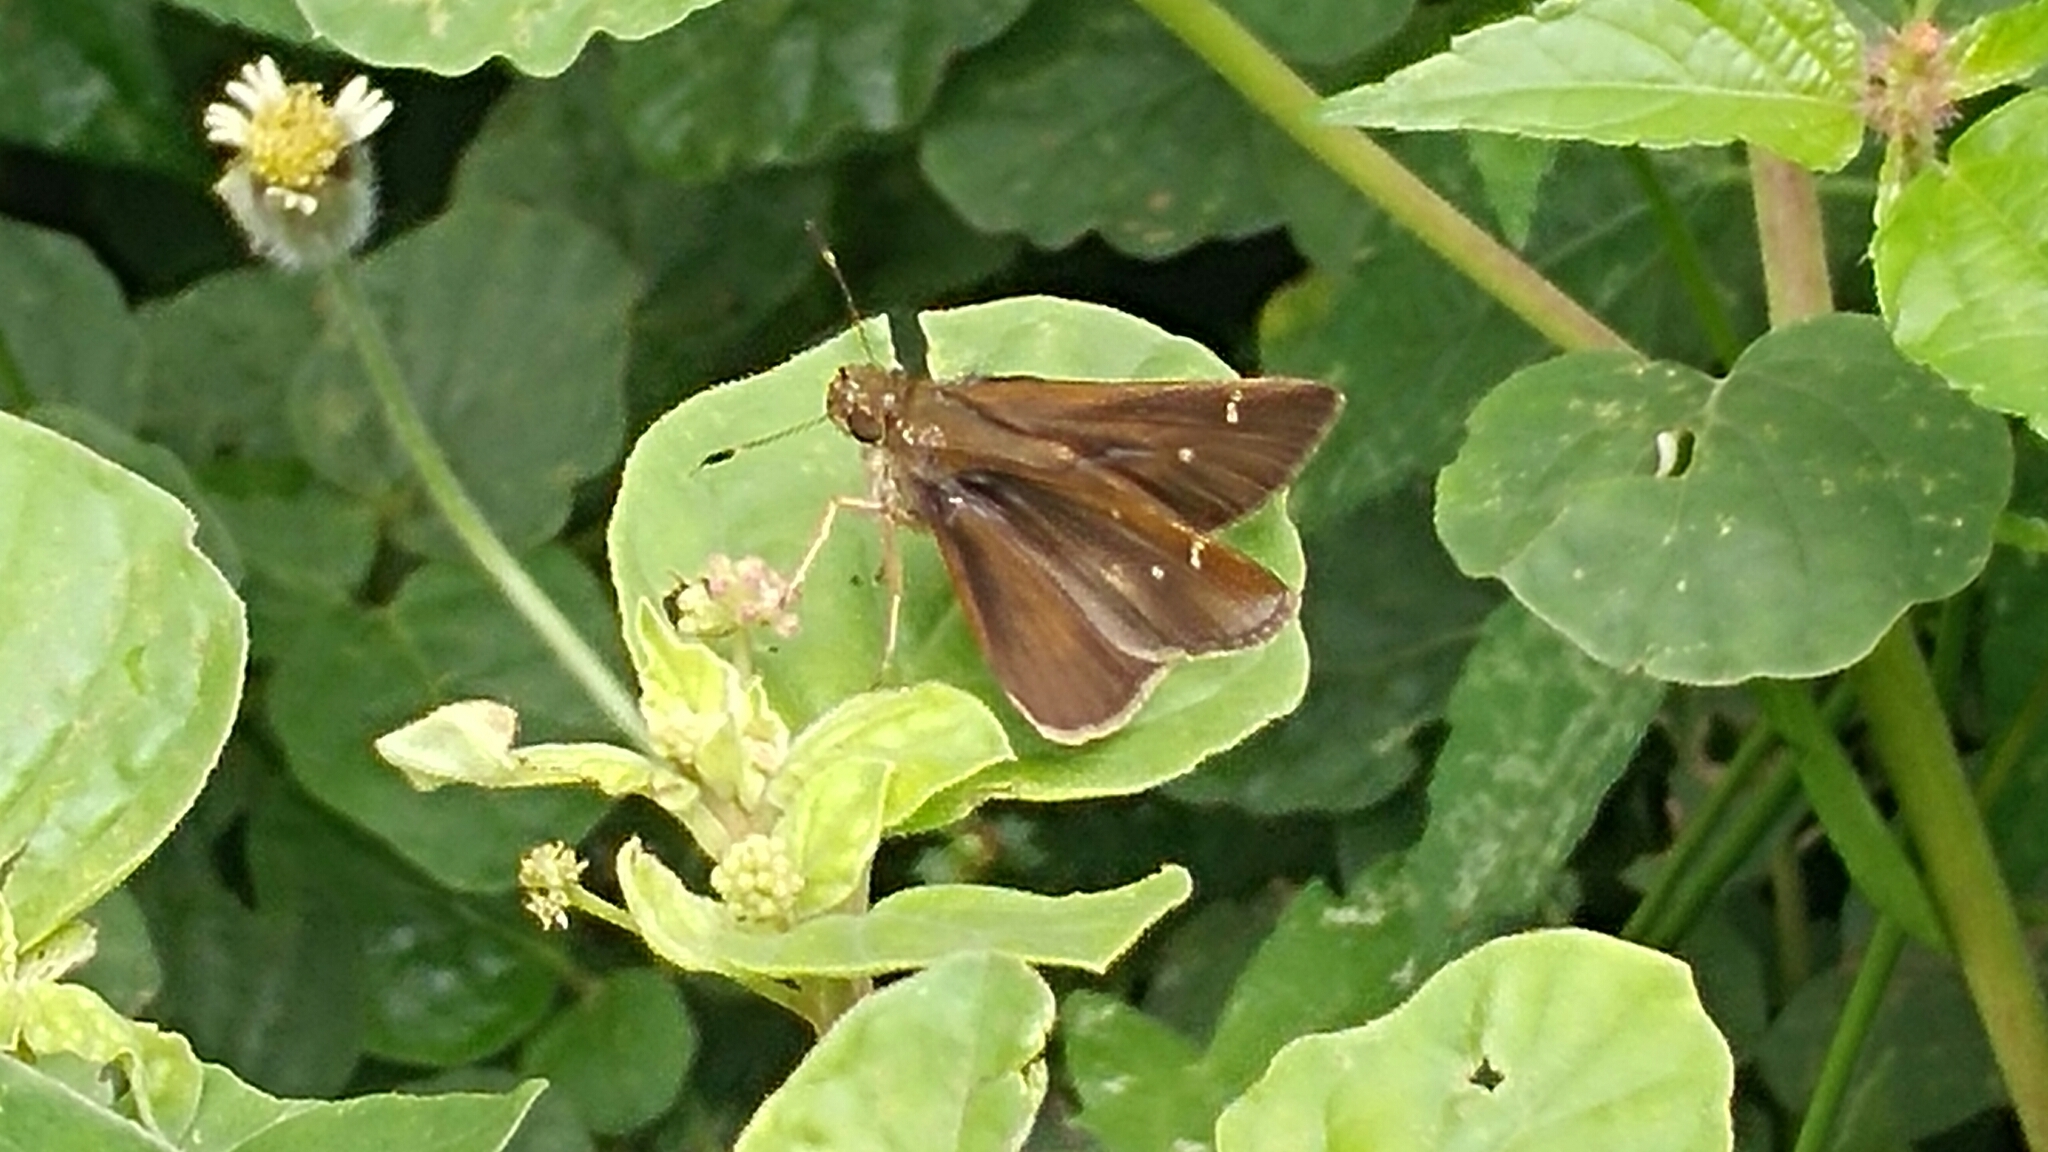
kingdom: Animalia
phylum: Arthropoda
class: Insecta
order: Lepidoptera
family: Hesperiidae
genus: Lerodea
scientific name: Lerodea eufala
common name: Eufala skipper
